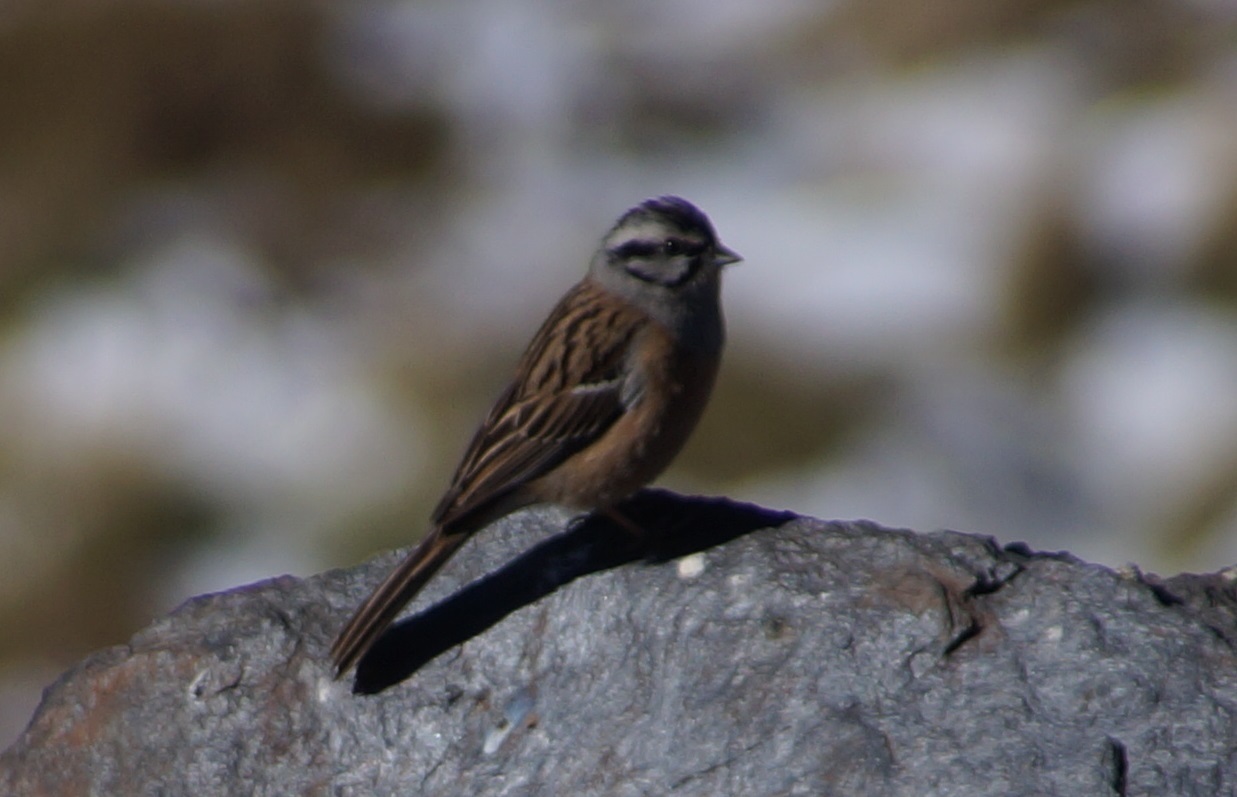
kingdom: Animalia
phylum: Chordata
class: Aves
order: Passeriformes
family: Emberizidae
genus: Emberiza
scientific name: Emberiza cia
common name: Rock bunting
